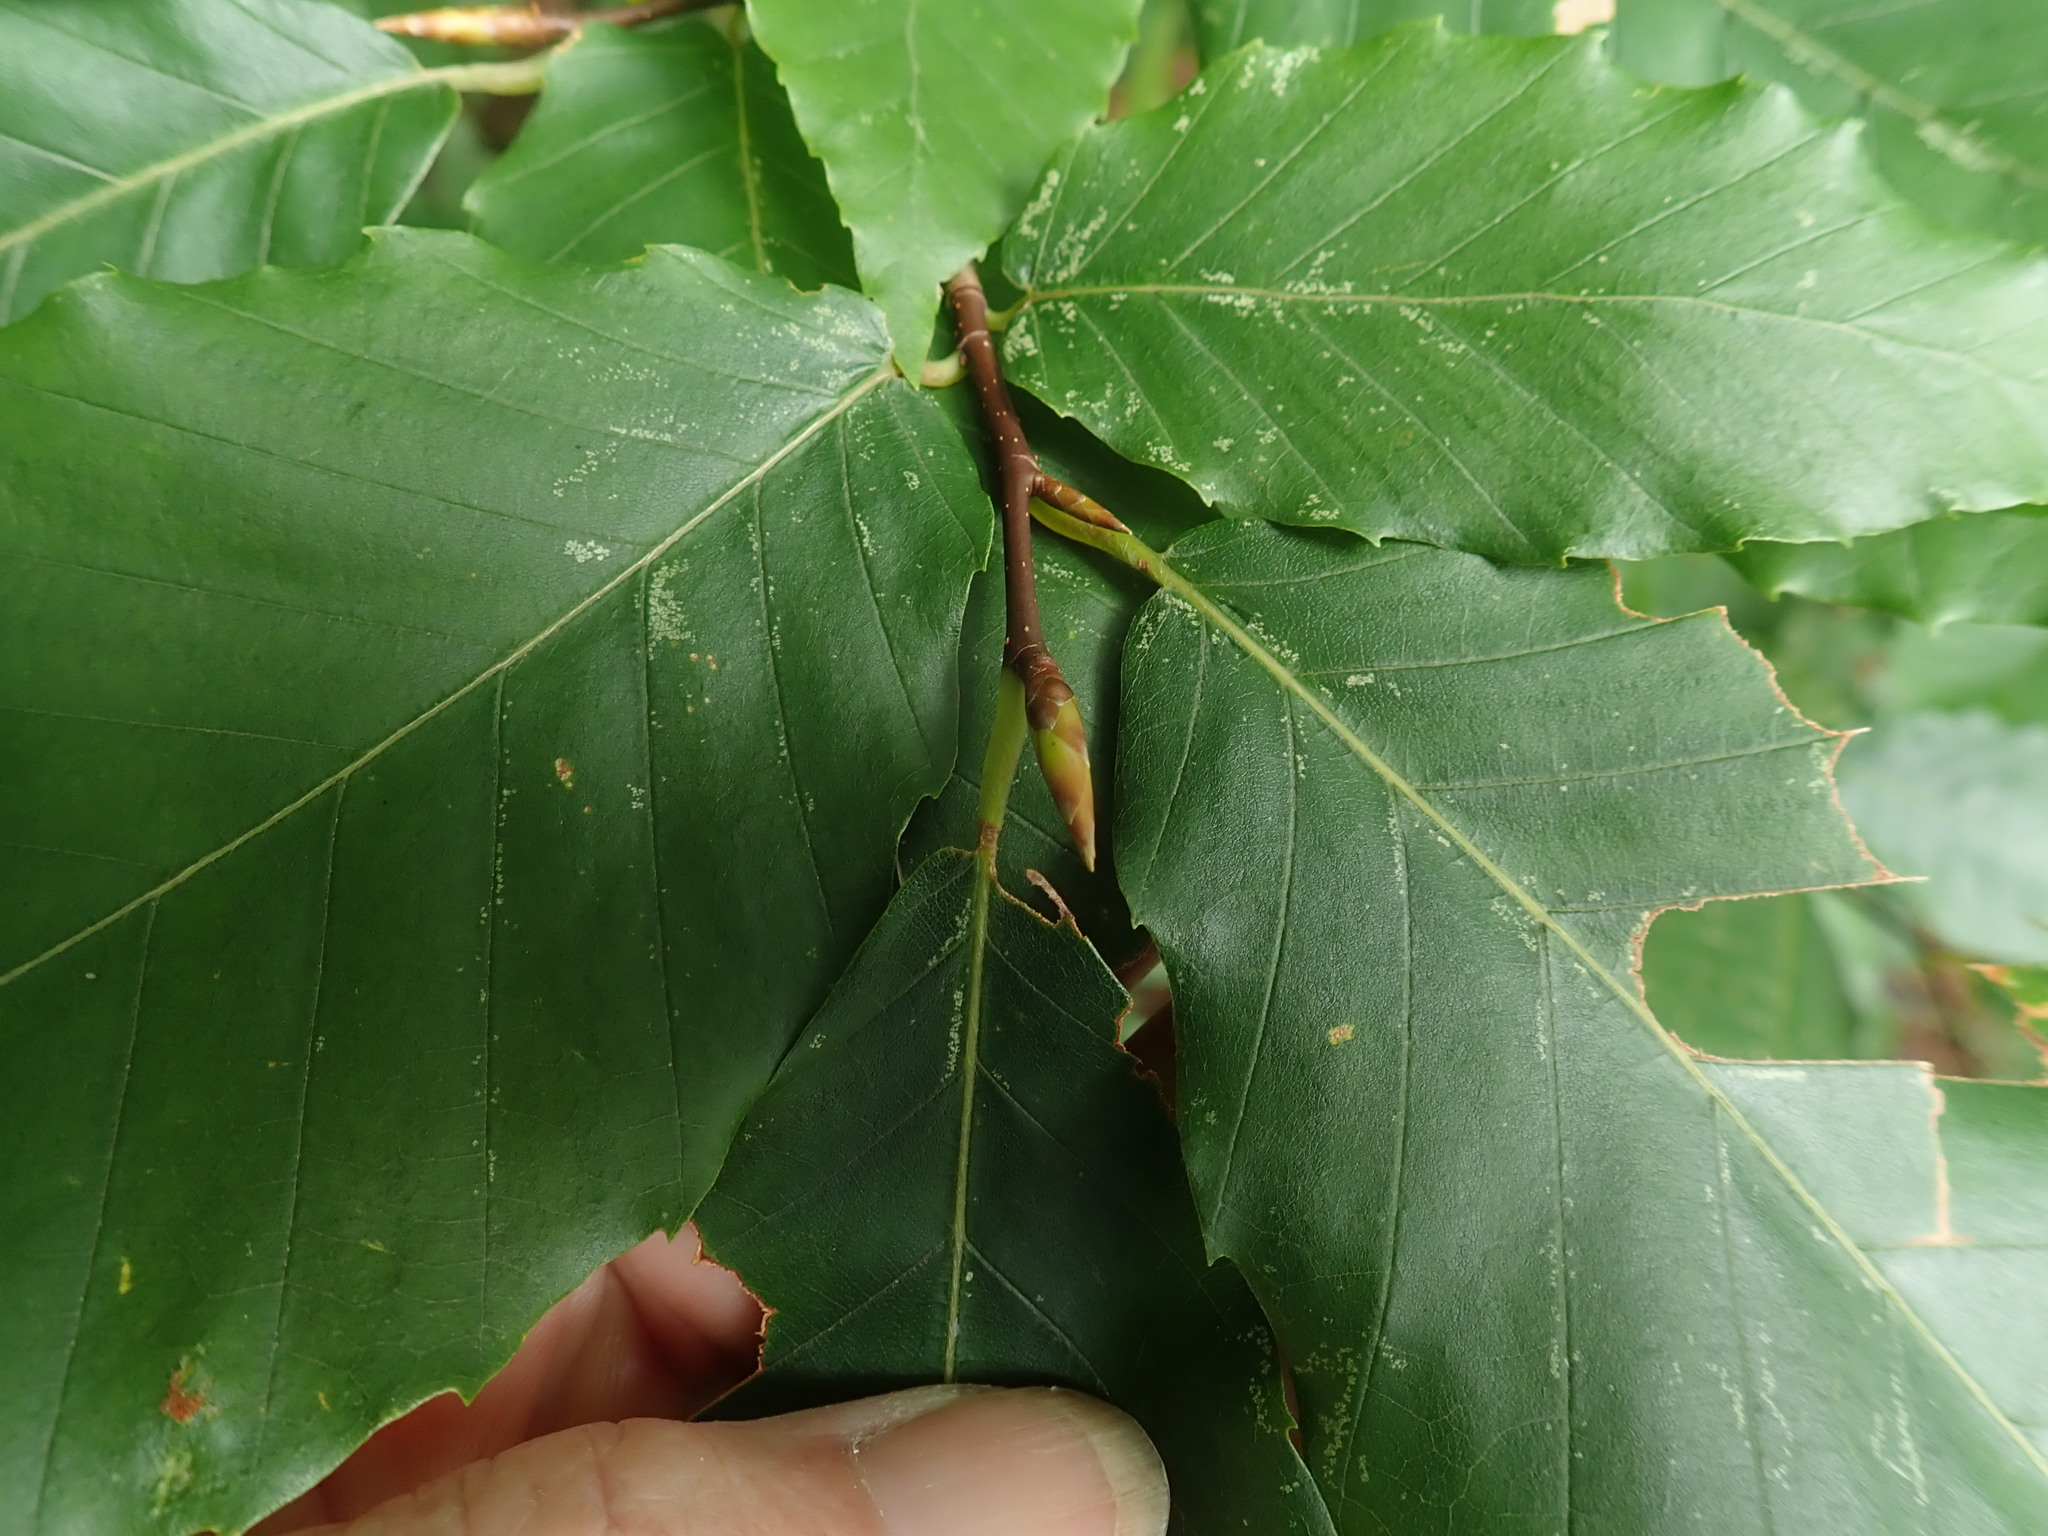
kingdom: Plantae
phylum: Tracheophyta
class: Magnoliopsida
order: Fagales
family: Fagaceae
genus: Fagus
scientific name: Fagus grandifolia
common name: American beech
